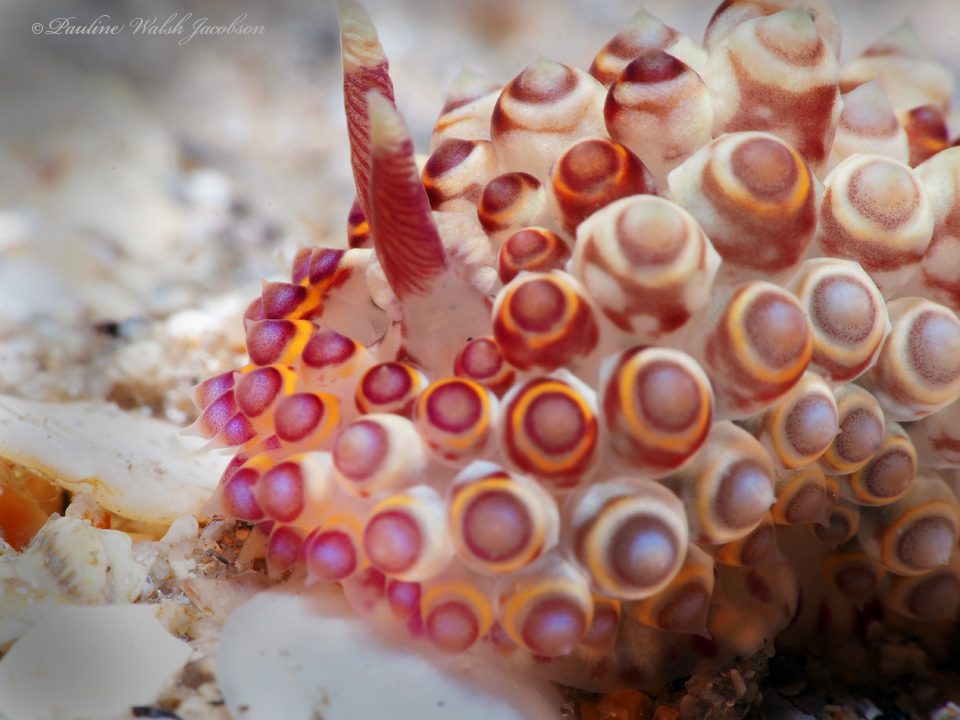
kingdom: Animalia
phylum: Mollusca
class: Gastropoda
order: Nudibranchia
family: Janolidae
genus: Janolus
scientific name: Janolus flavoanulatus
